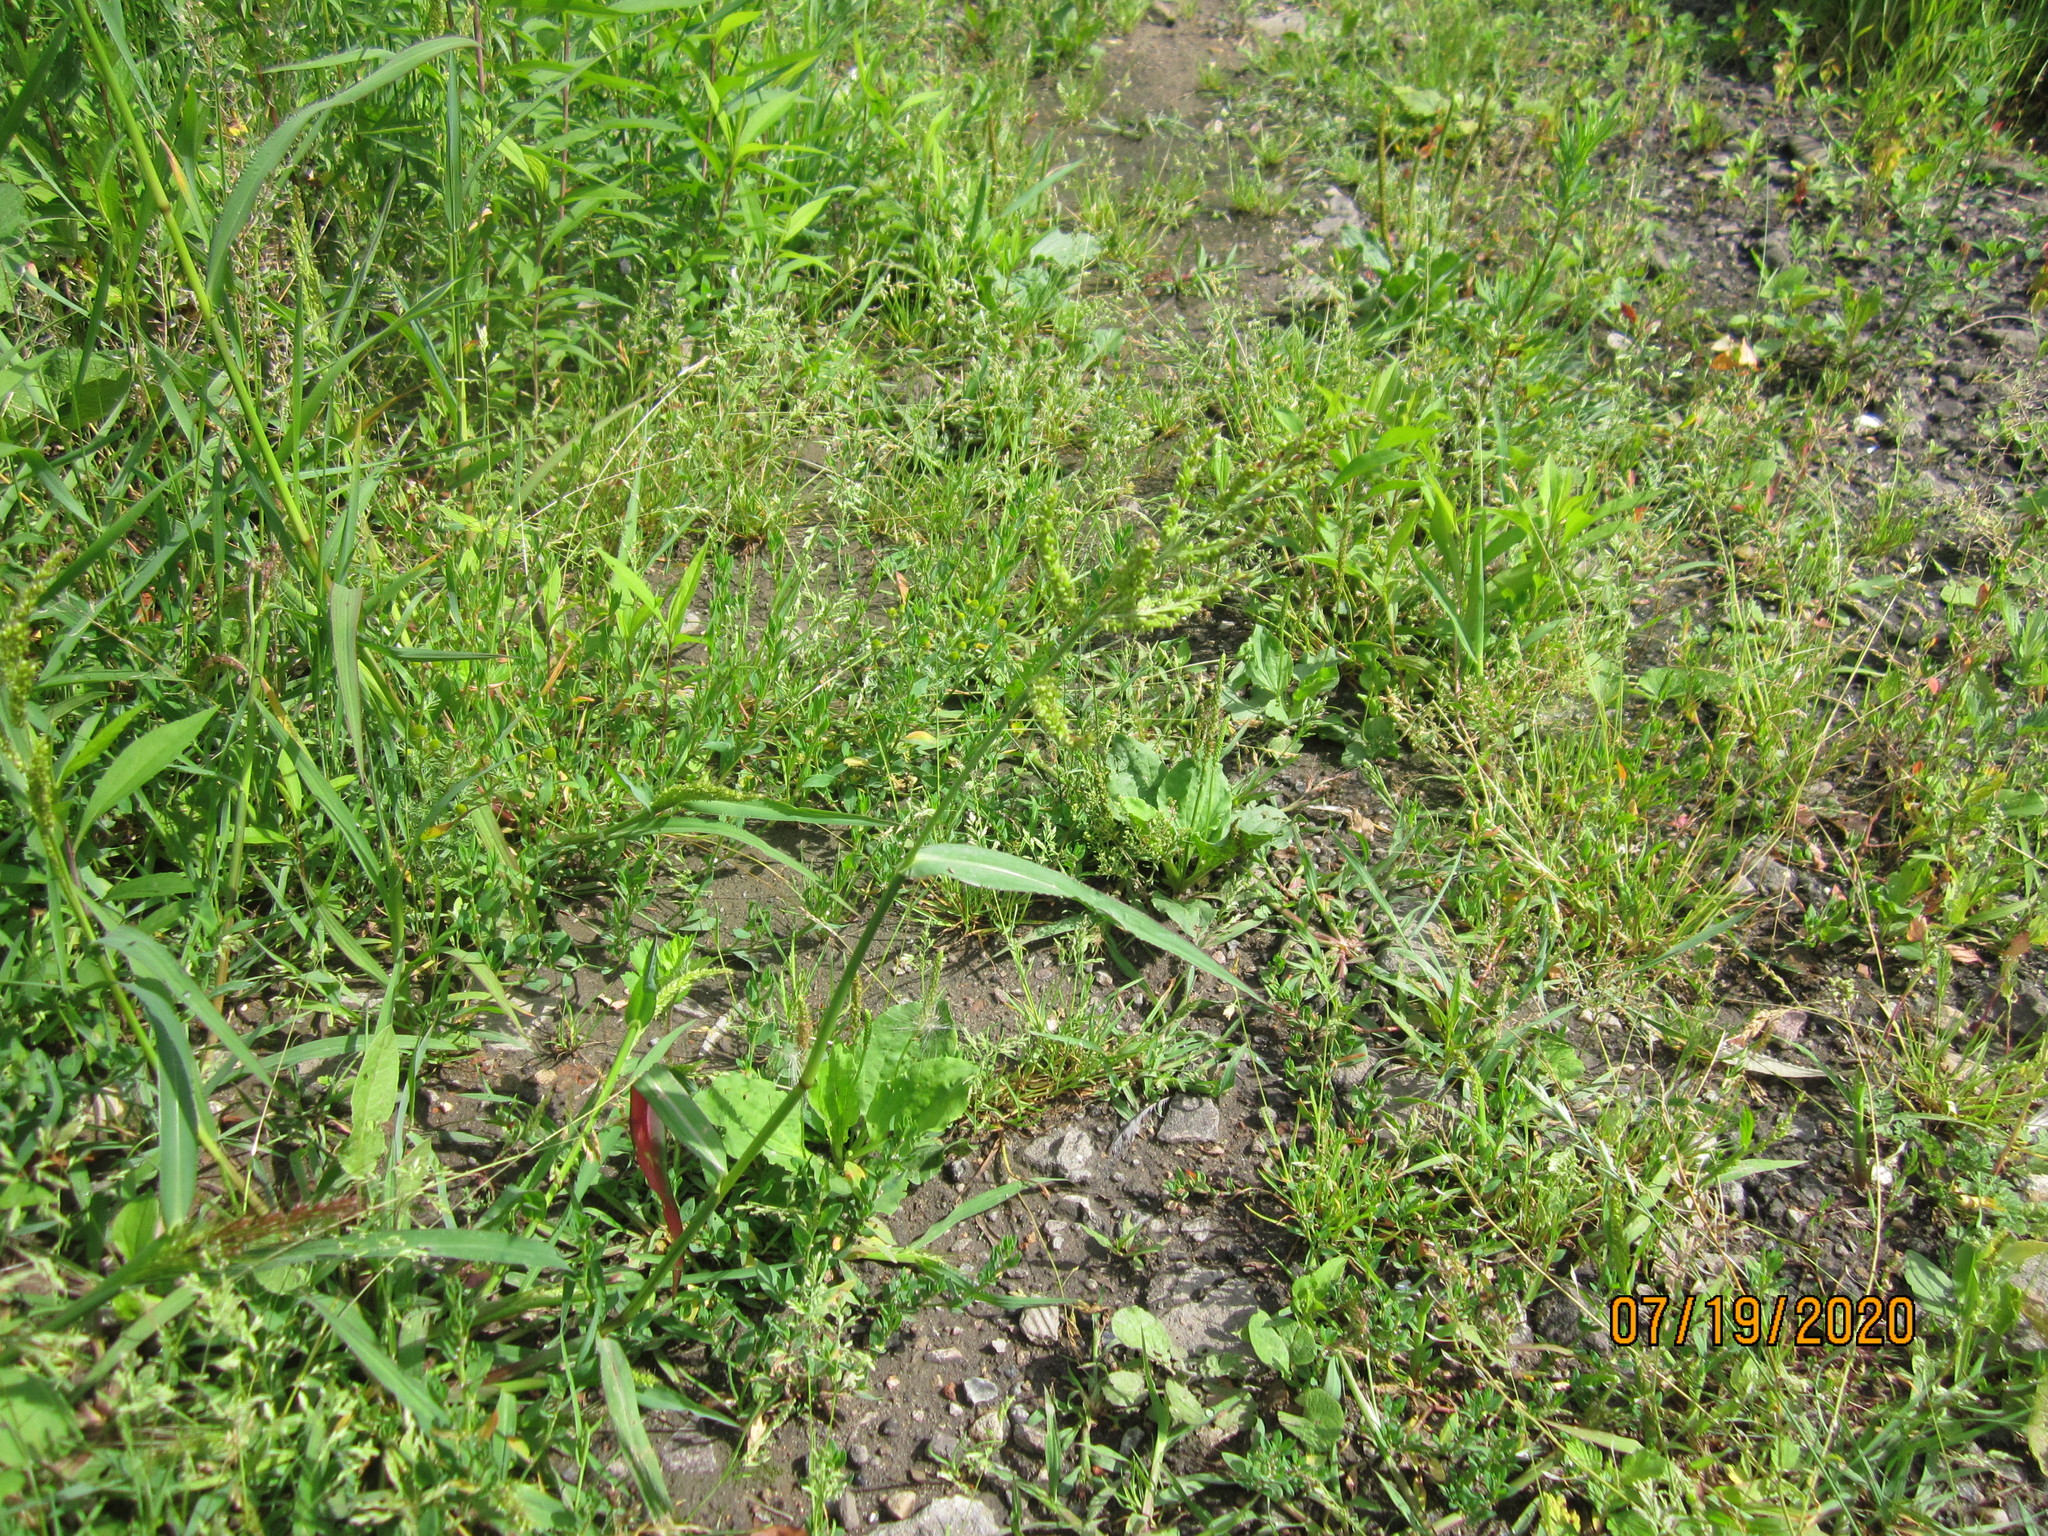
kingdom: Plantae
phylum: Tracheophyta
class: Liliopsida
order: Poales
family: Poaceae
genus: Echinochloa
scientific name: Echinochloa crus-galli
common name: Cockspur
